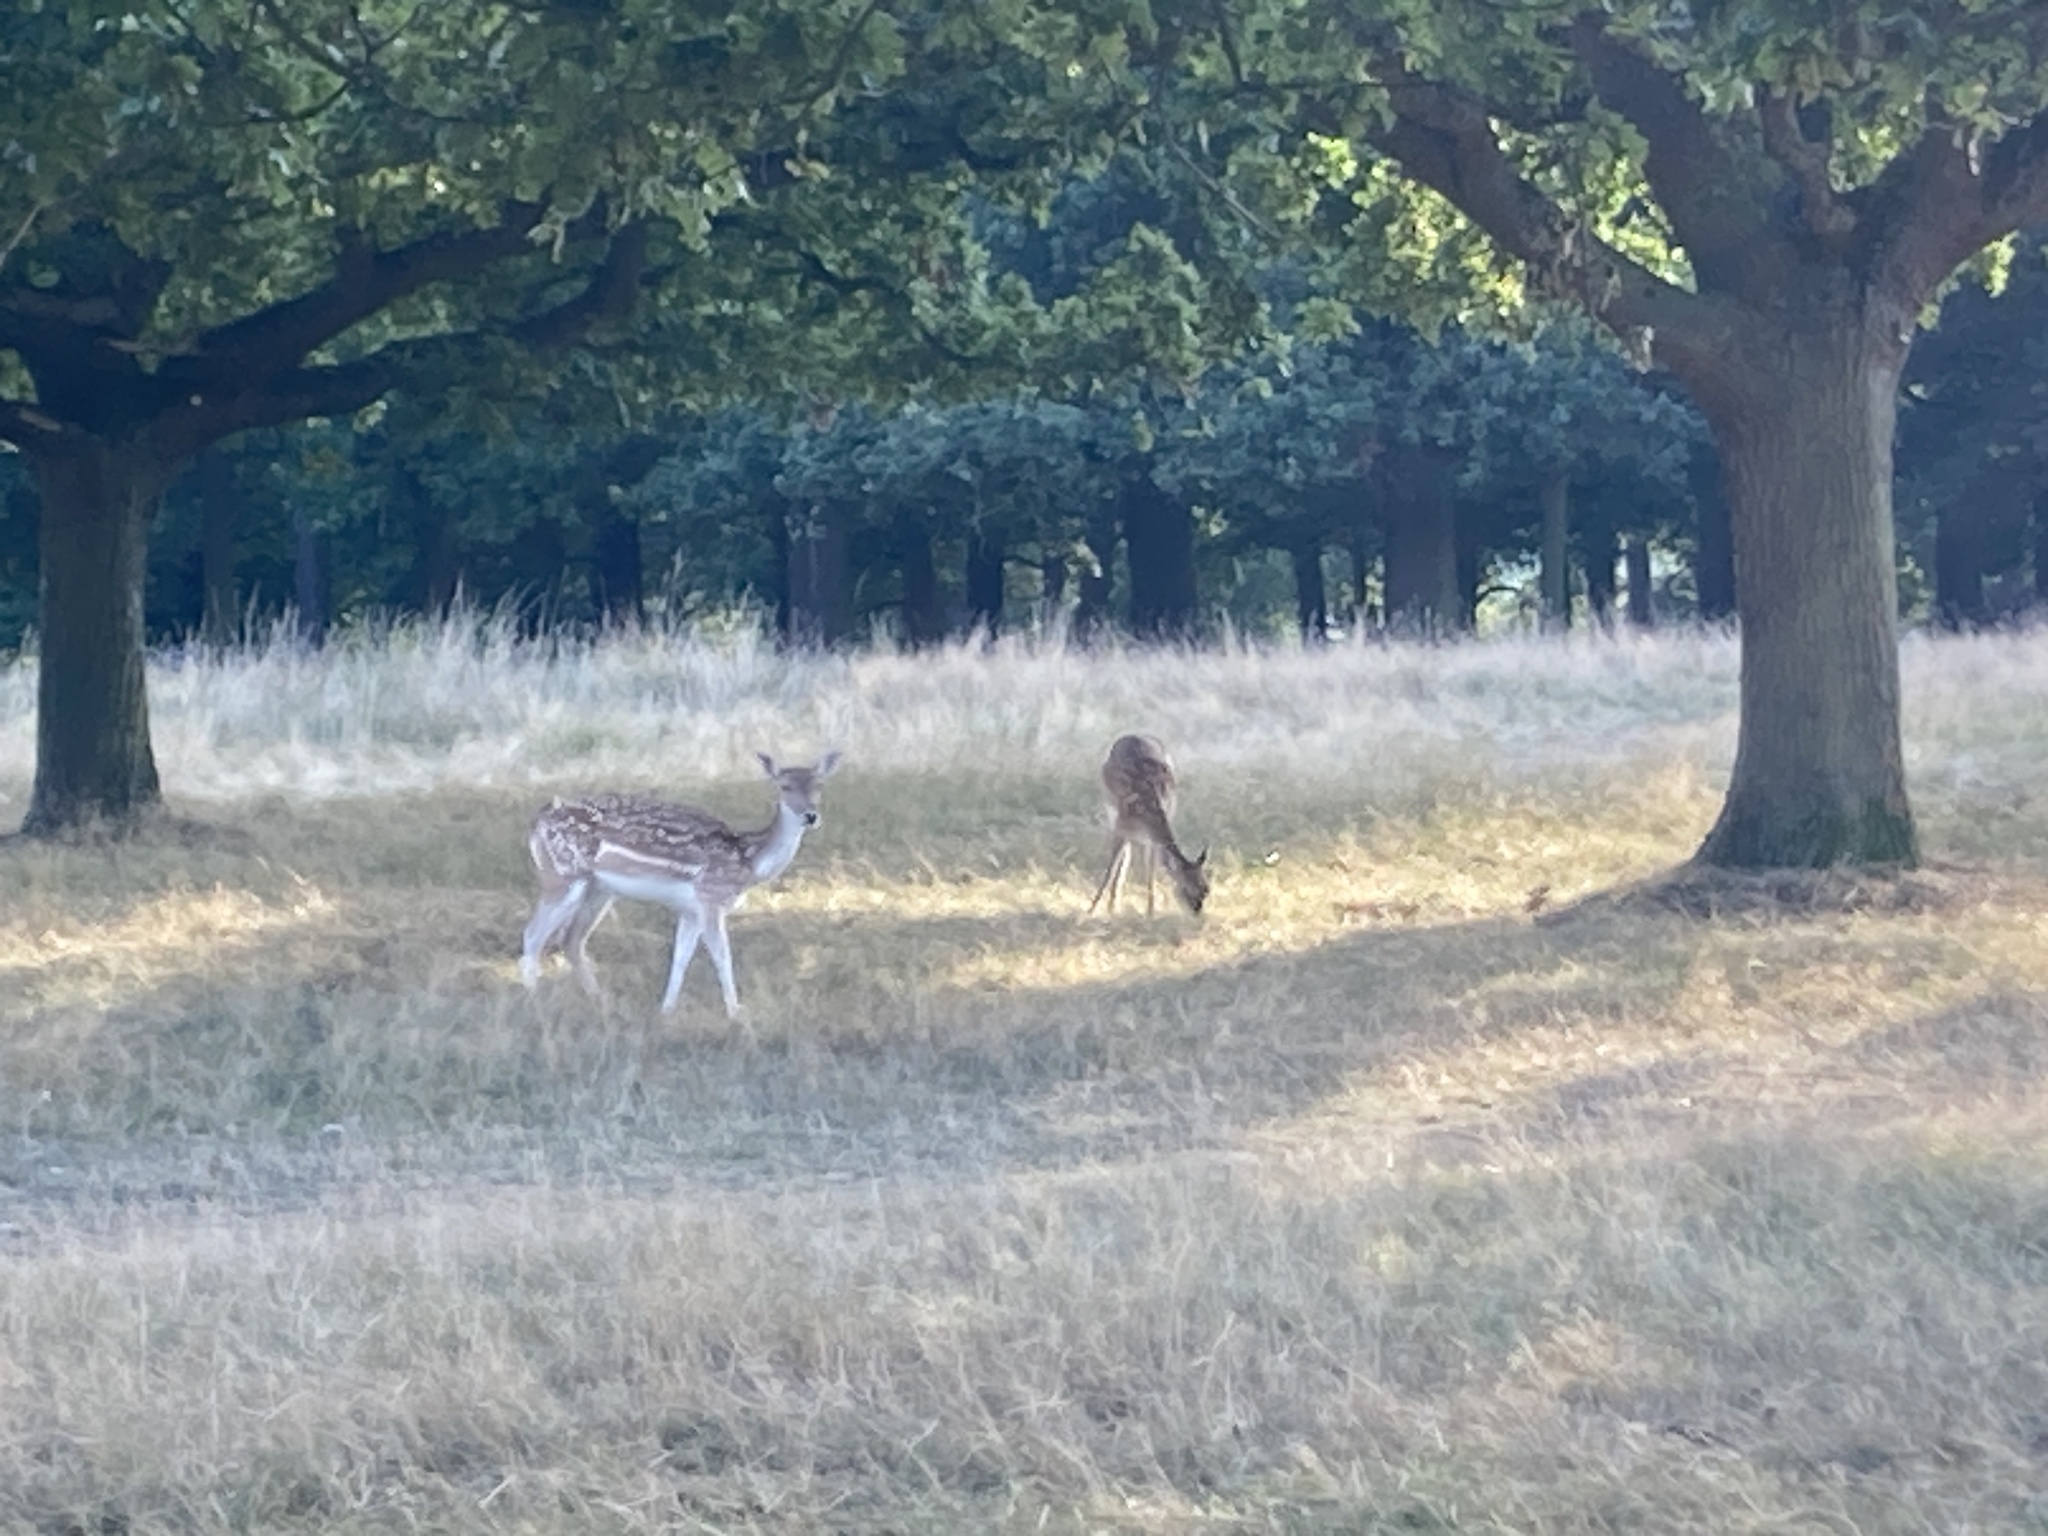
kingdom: Animalia
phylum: Chordata
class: Mammalia
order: Artiodactyla
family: Cervidae
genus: Dama
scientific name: Dama dama
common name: Fallow deer
